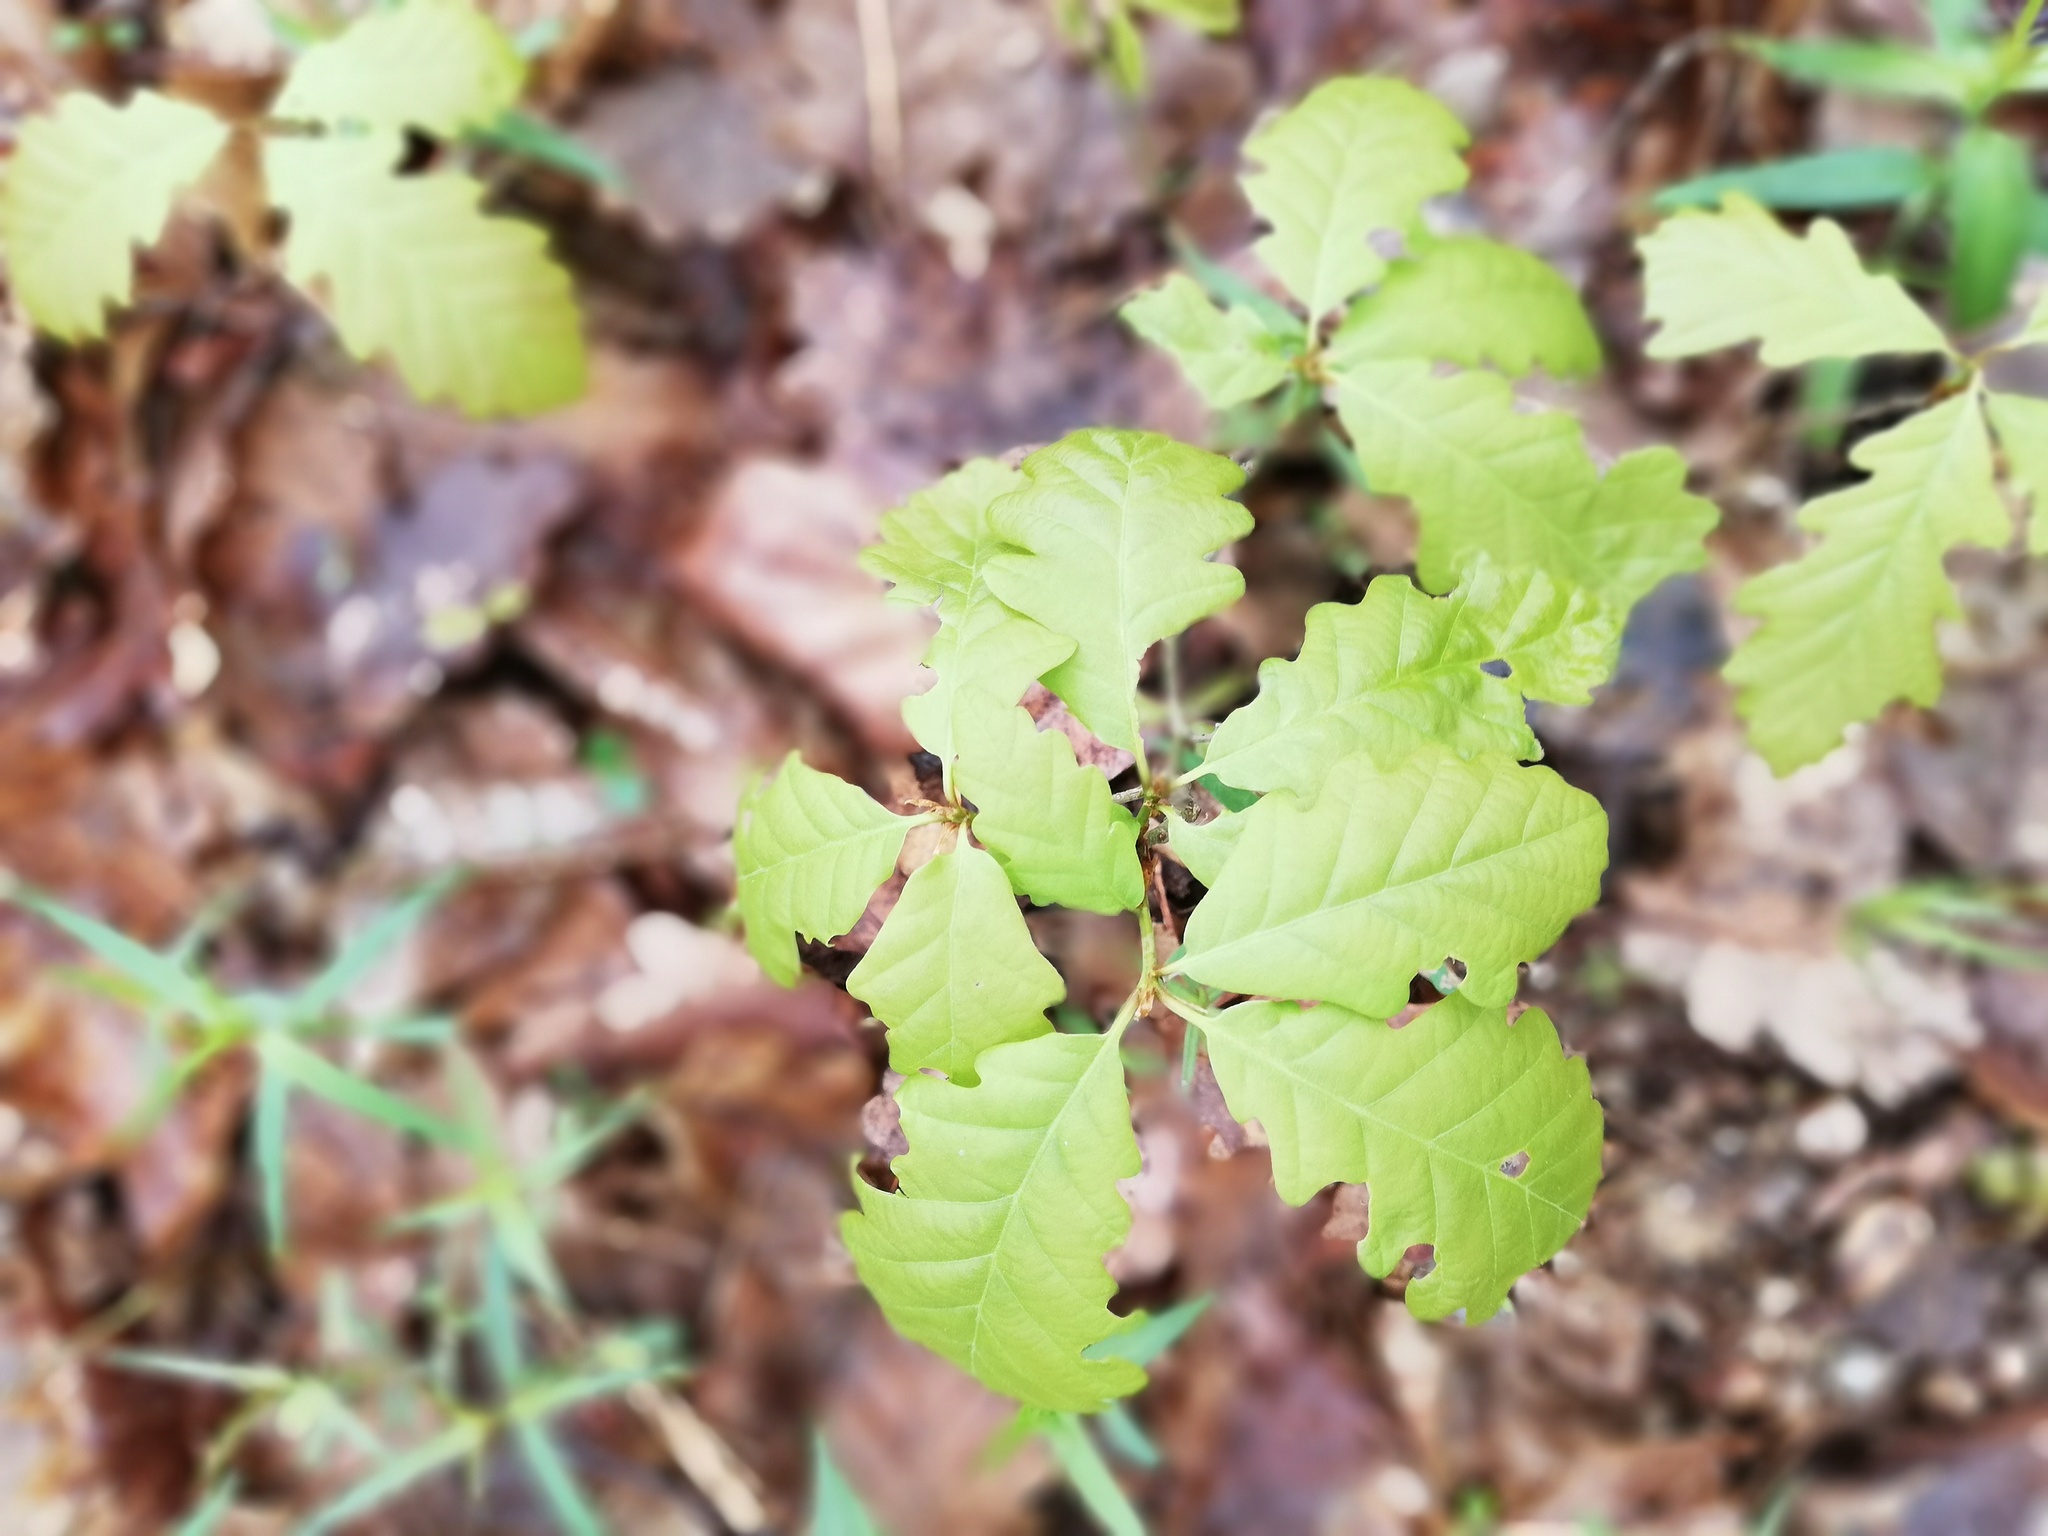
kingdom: Plantae
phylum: Tracheophyta
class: Magnoliopsida
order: Fagales
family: Fagaceae
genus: Quercus
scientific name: Quercus robur
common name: Pedunculate oak
